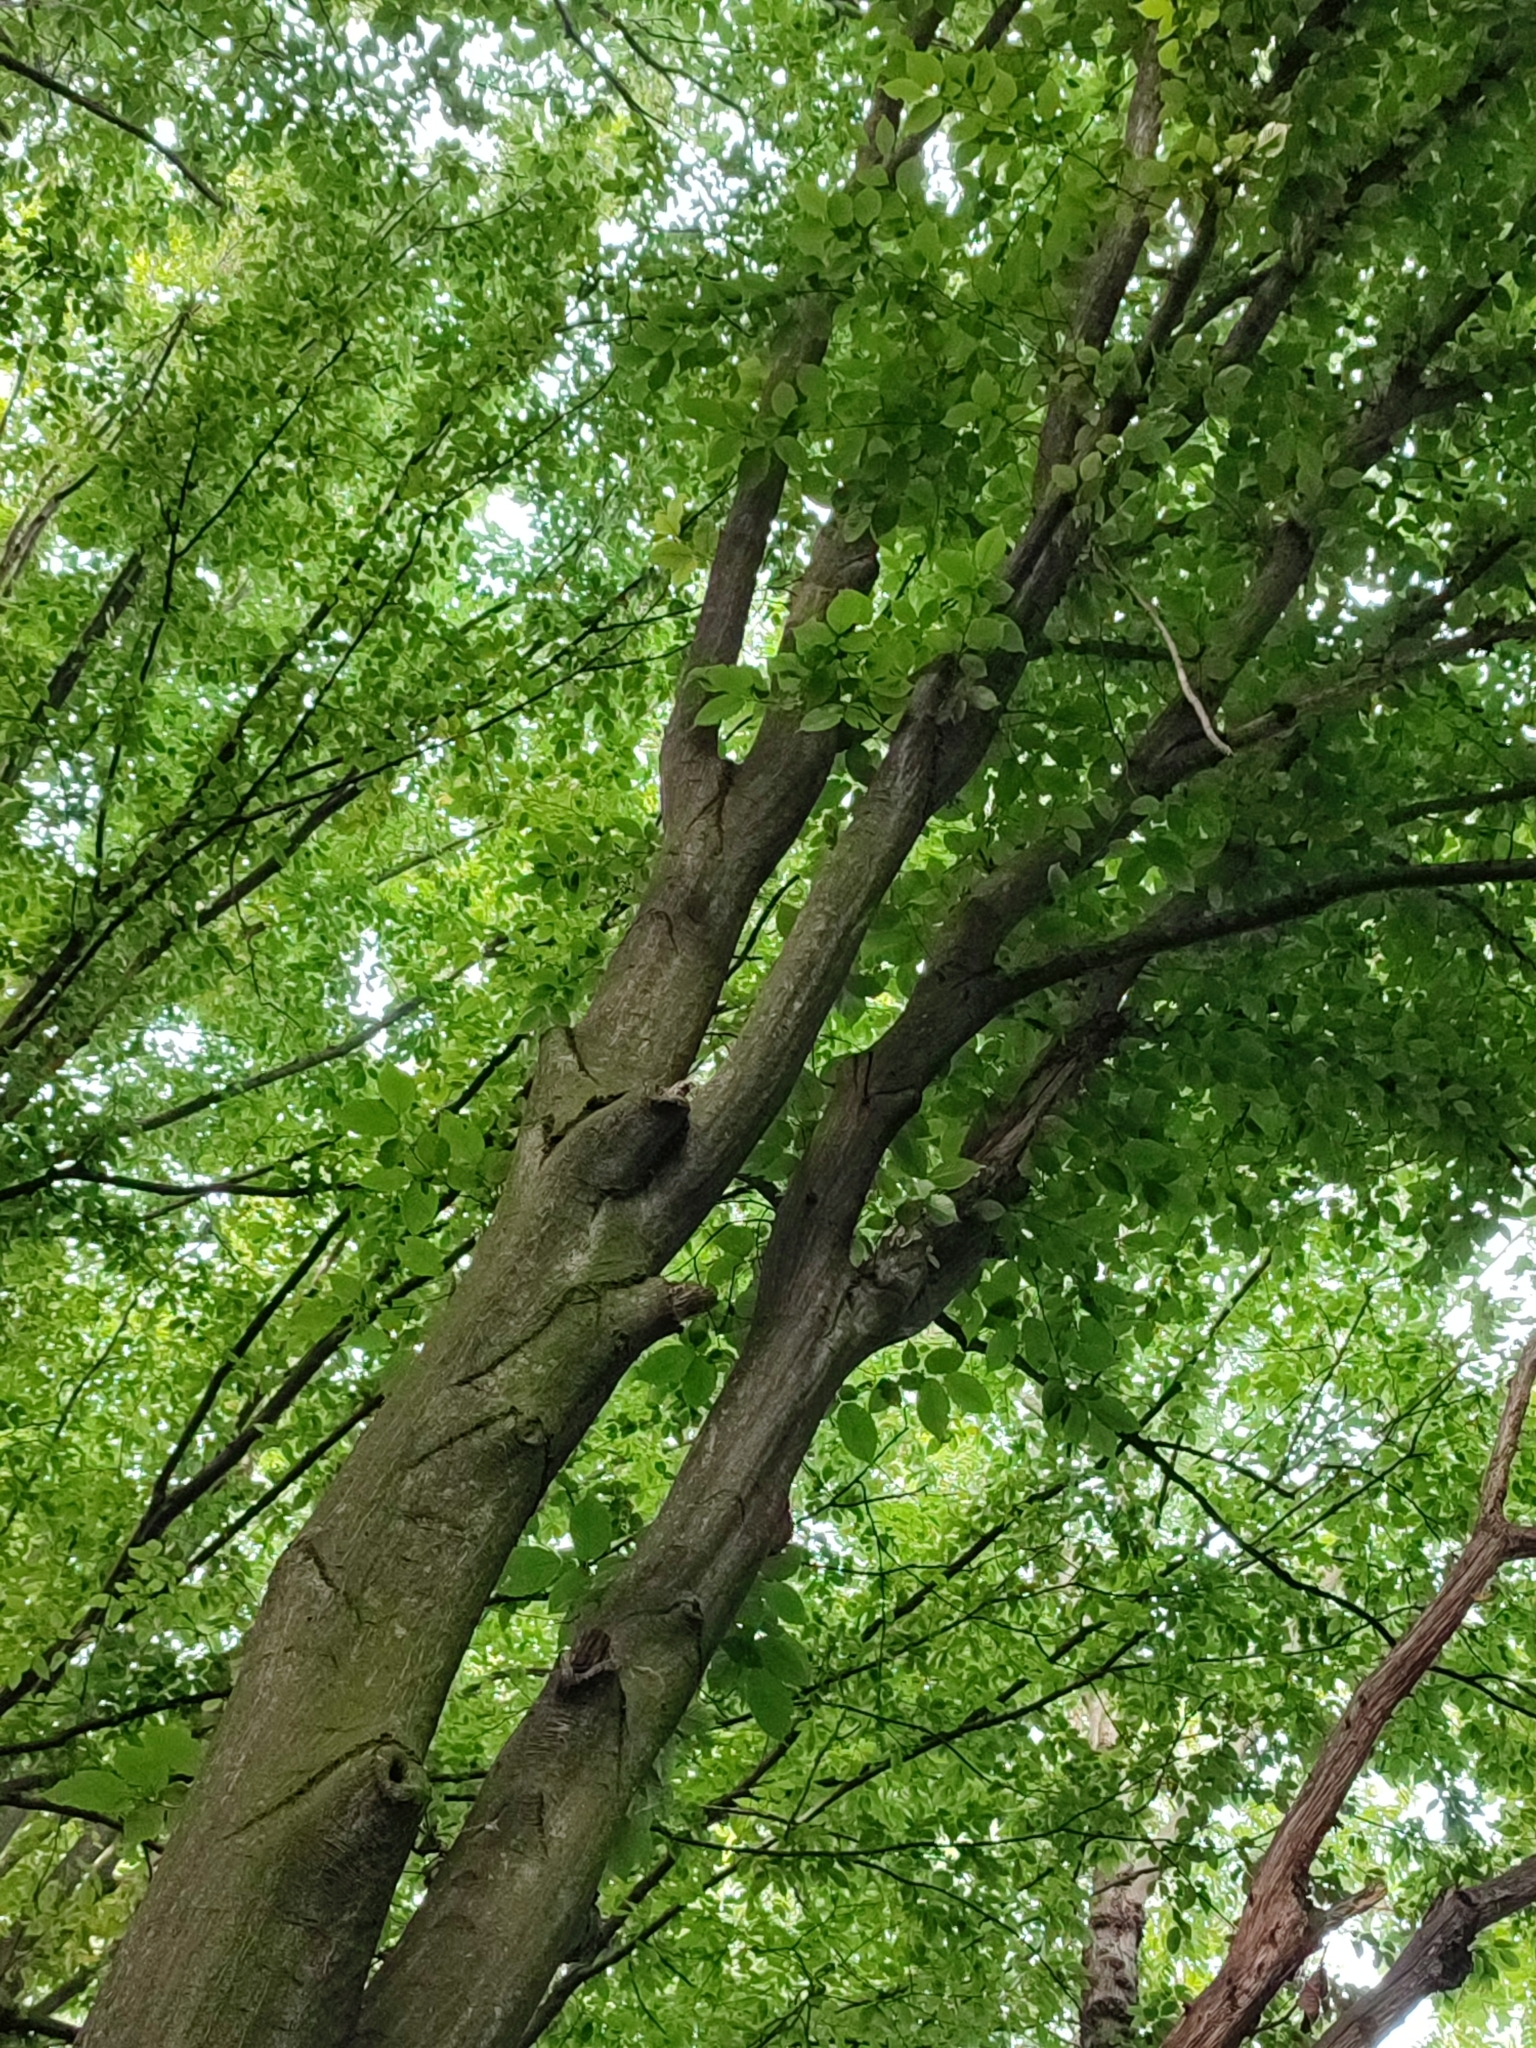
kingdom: Plantae
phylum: Tracheophyta
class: Magnoliopsida
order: Fagales
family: Betulaceae
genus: Carpinus
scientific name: Carpinus betulus
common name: Hornbeam
